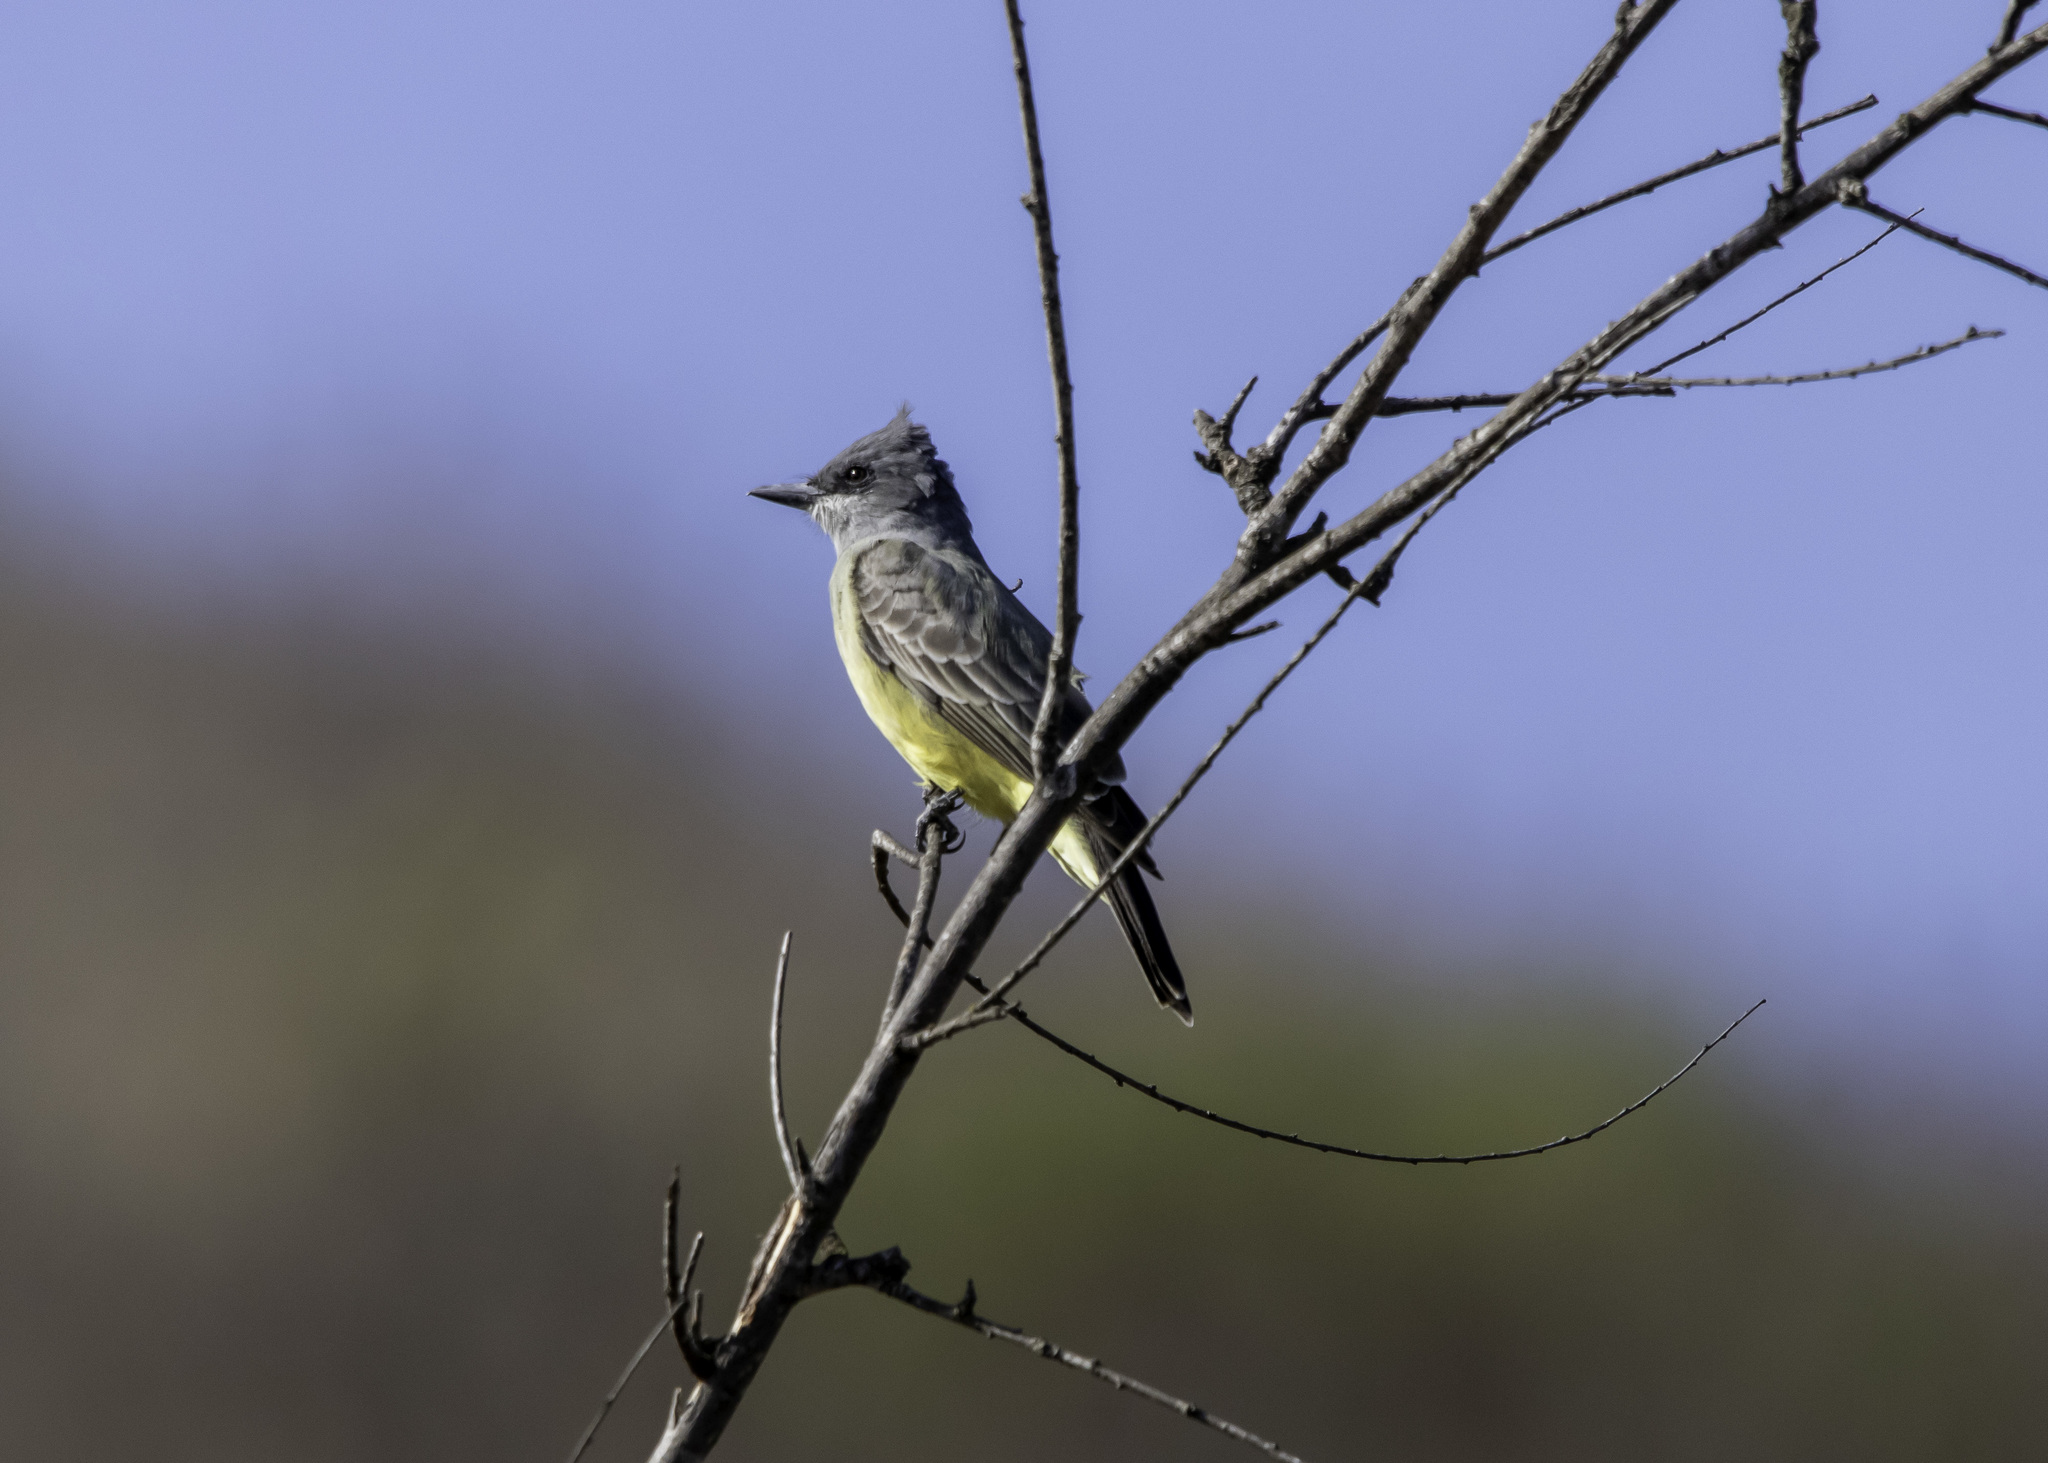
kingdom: Animalia
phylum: Chordata
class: Aves
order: Passeriformes
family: Tyrannidae
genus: Tyrannus
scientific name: Tyrannus vociferans
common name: Cassin's kingbird
